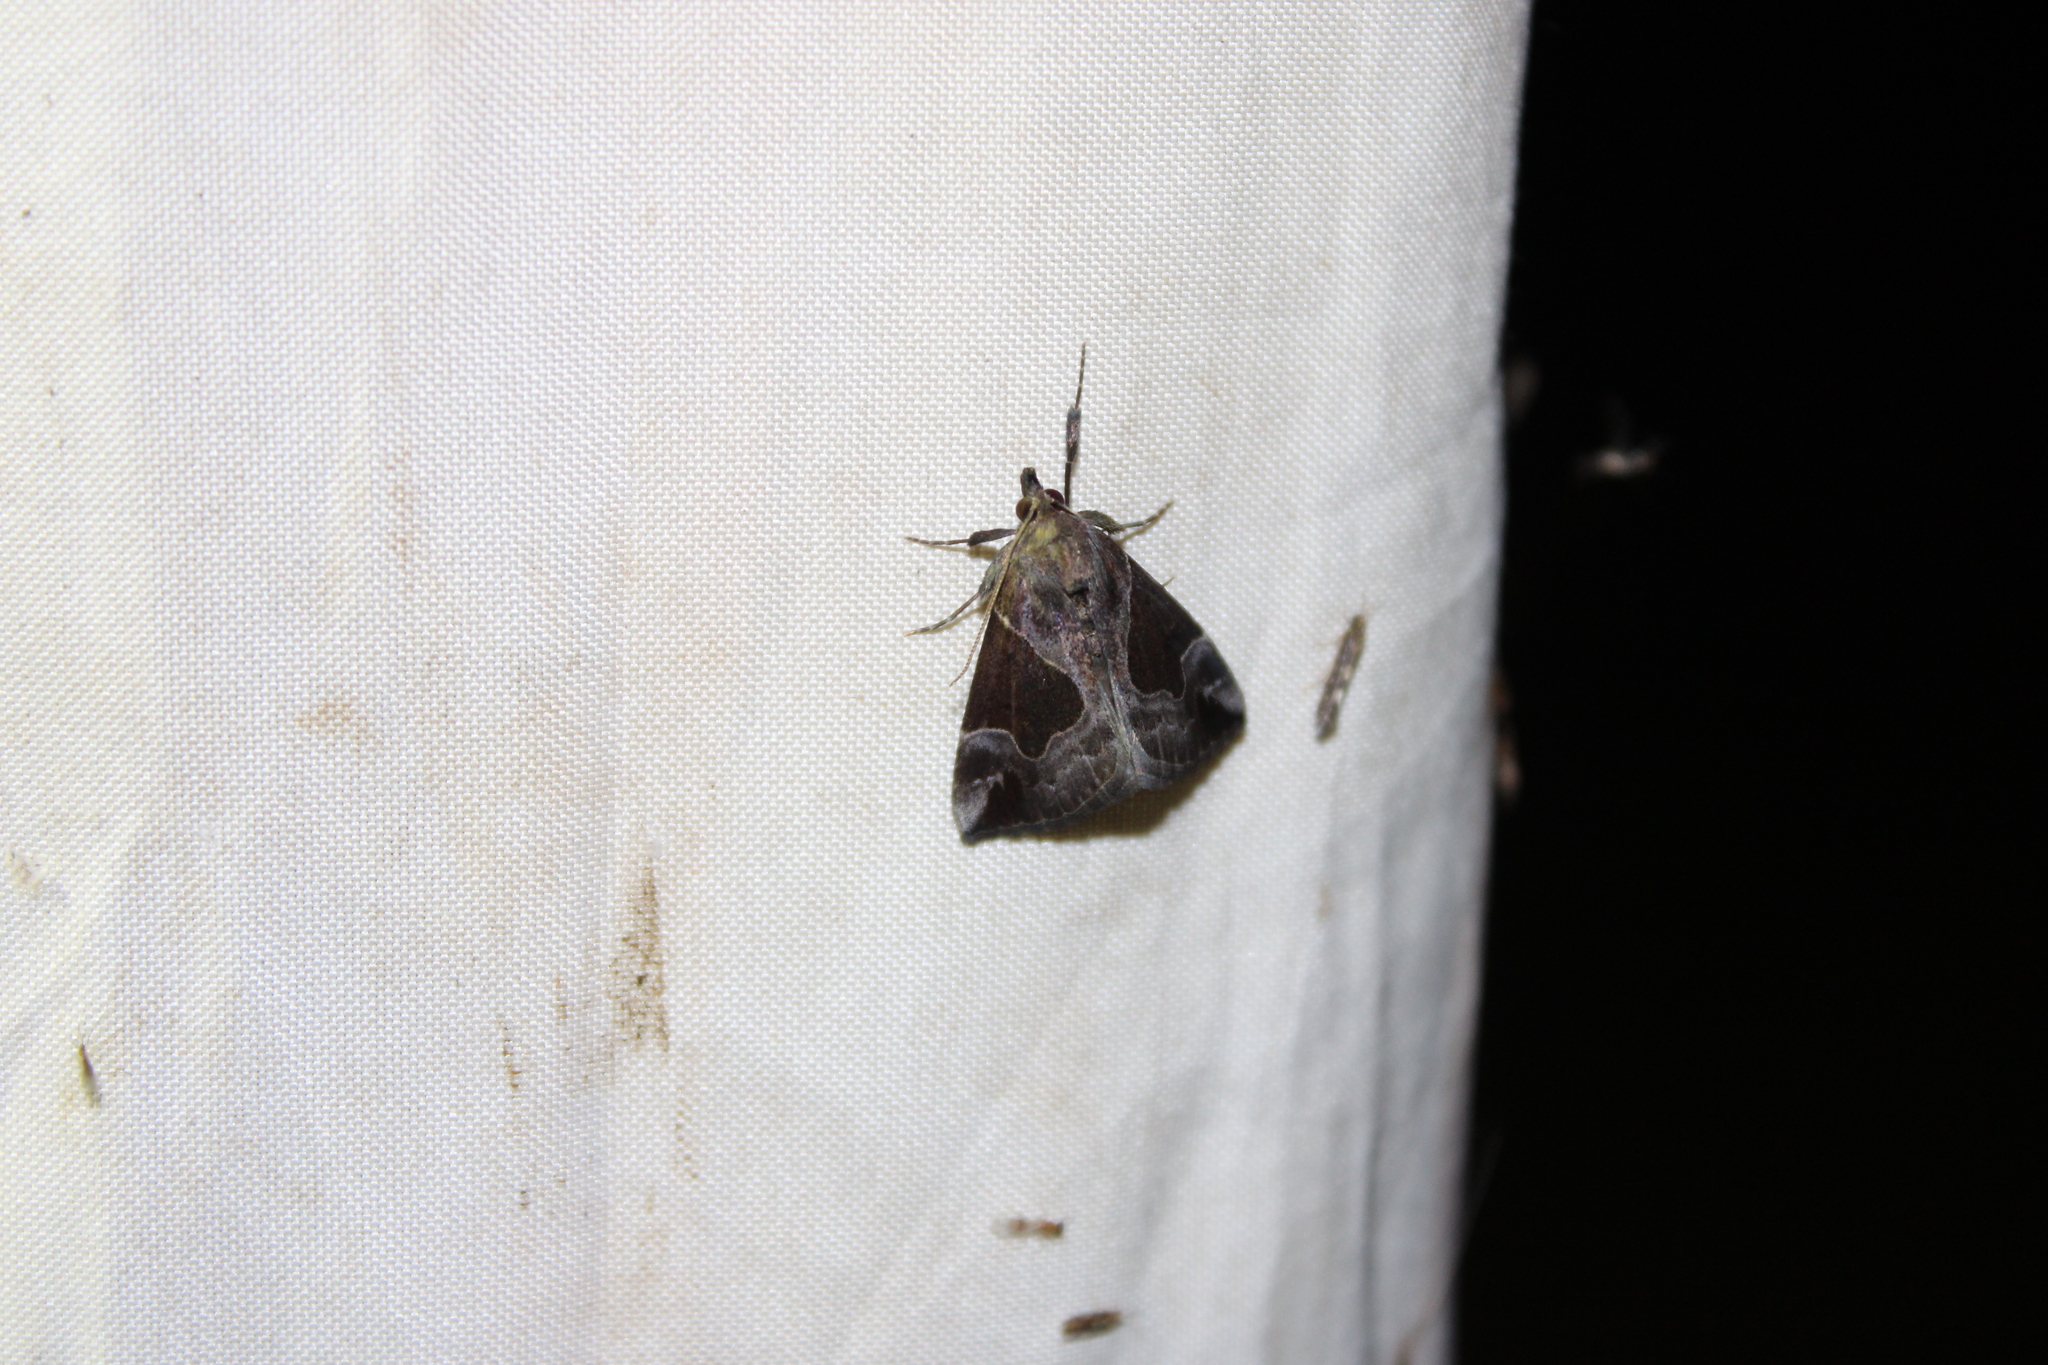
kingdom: Animalia
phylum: Arthropoda
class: Insecta
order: Lepidoptera
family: Erebidae
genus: Hypena
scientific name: Hypena manalis
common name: Flowing-line bomolocha moth
